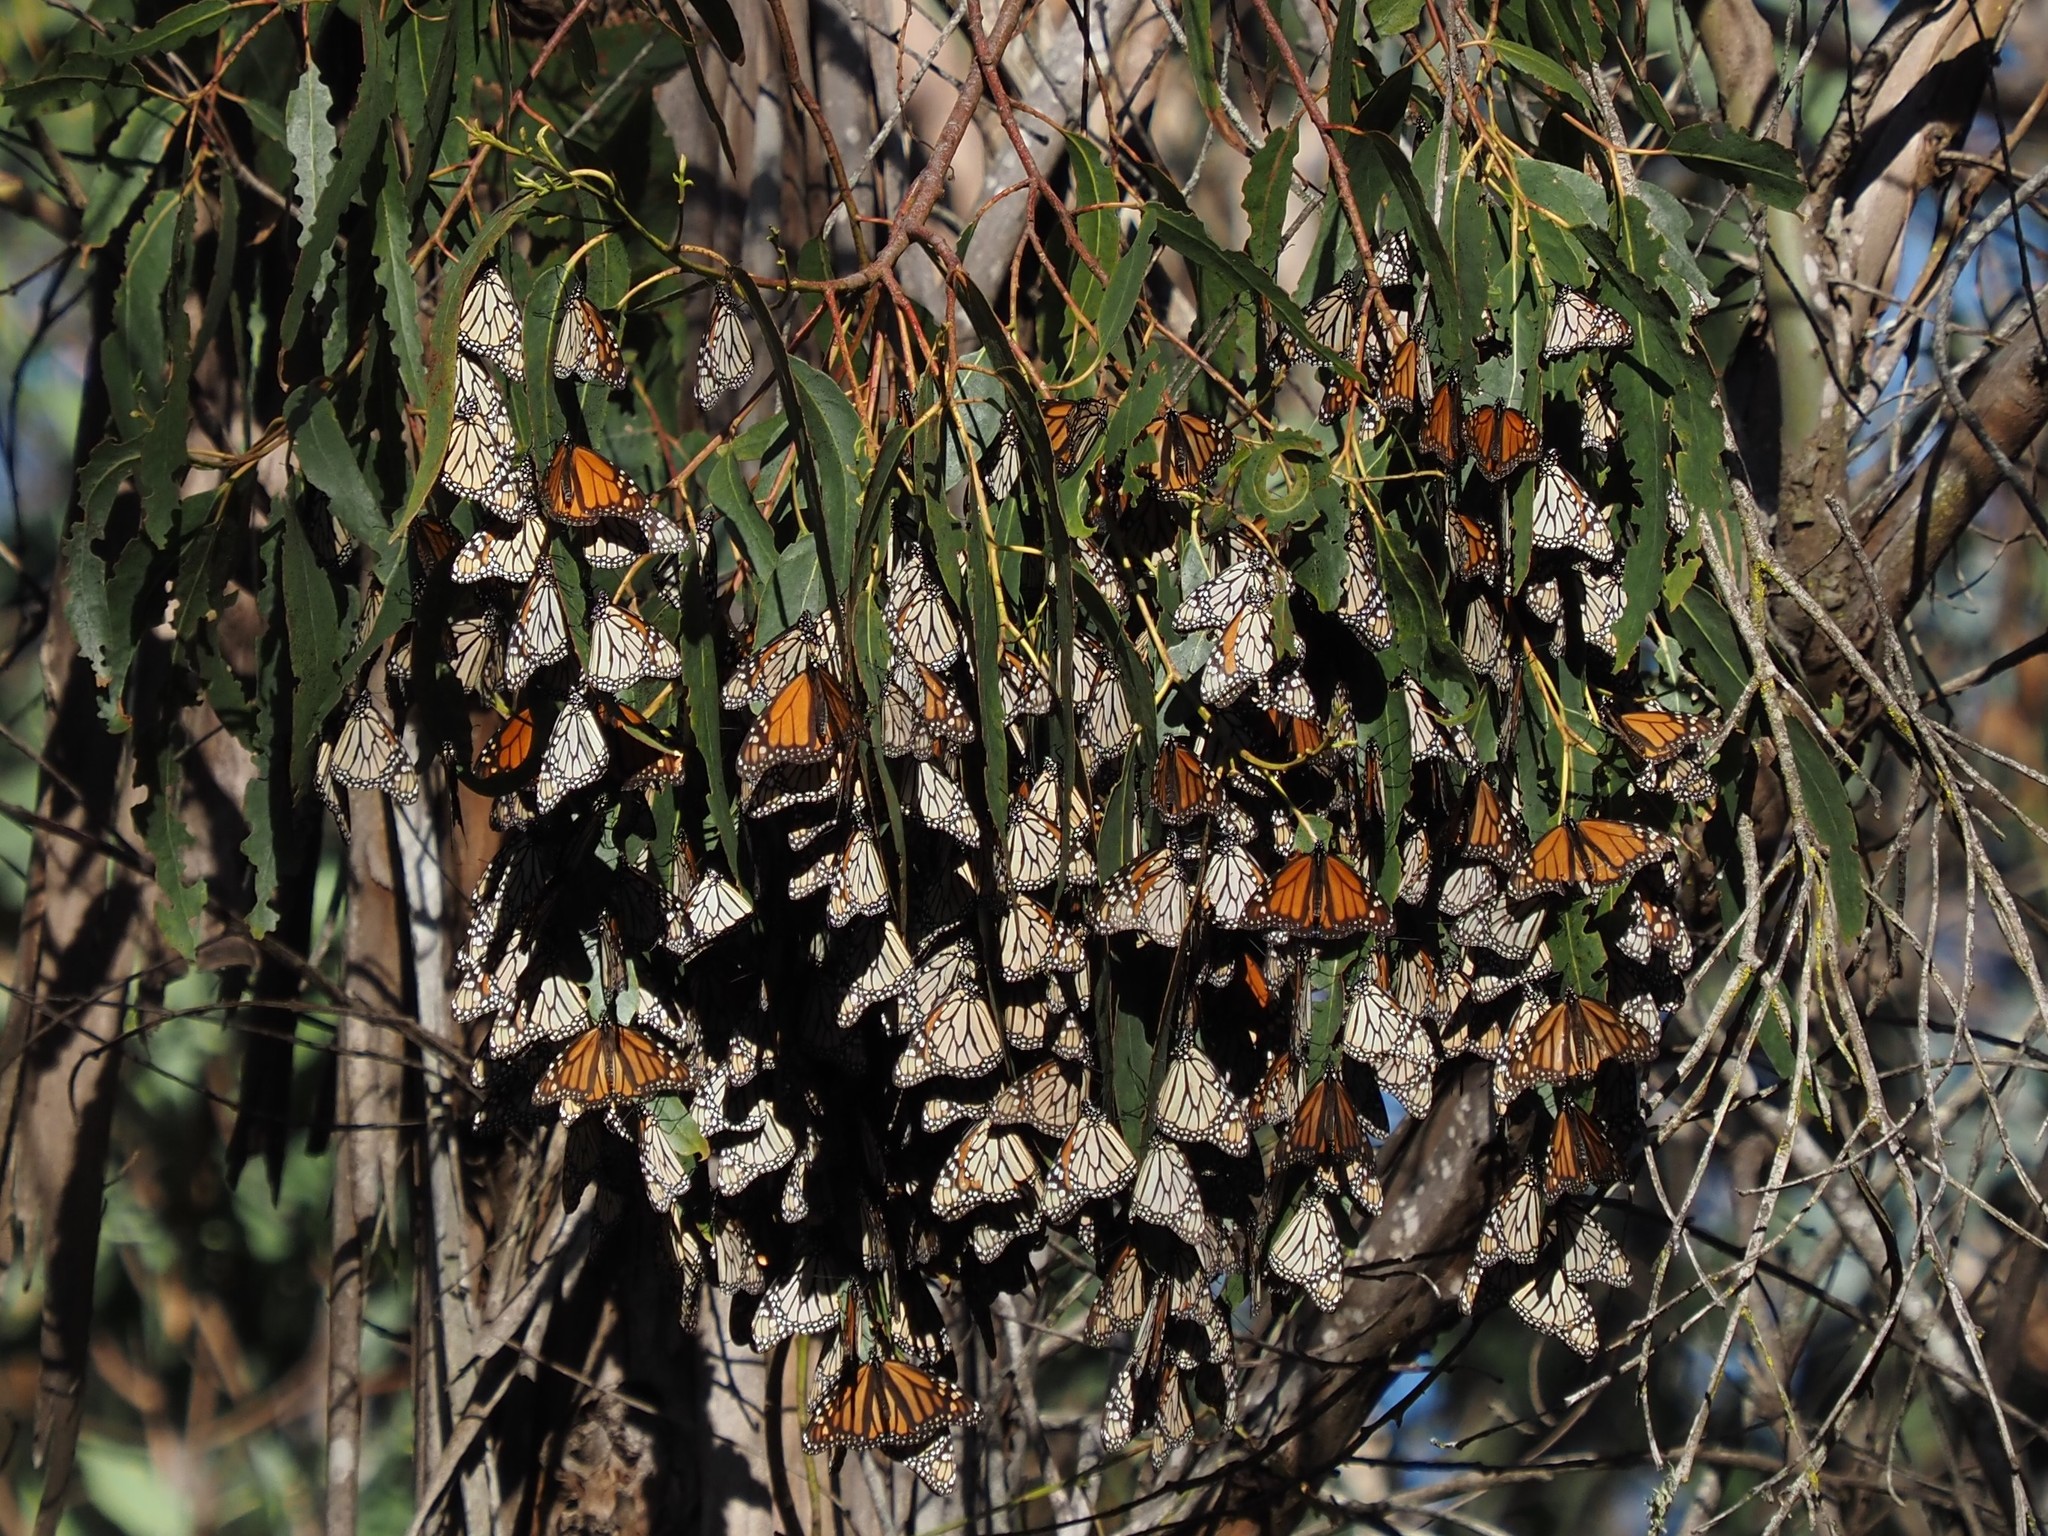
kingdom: Animalia
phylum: Arthropoda
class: Insecta
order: Lepidoptera
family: Nymphalidae
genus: Danaus
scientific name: Danaus plexippus
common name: Monarch
